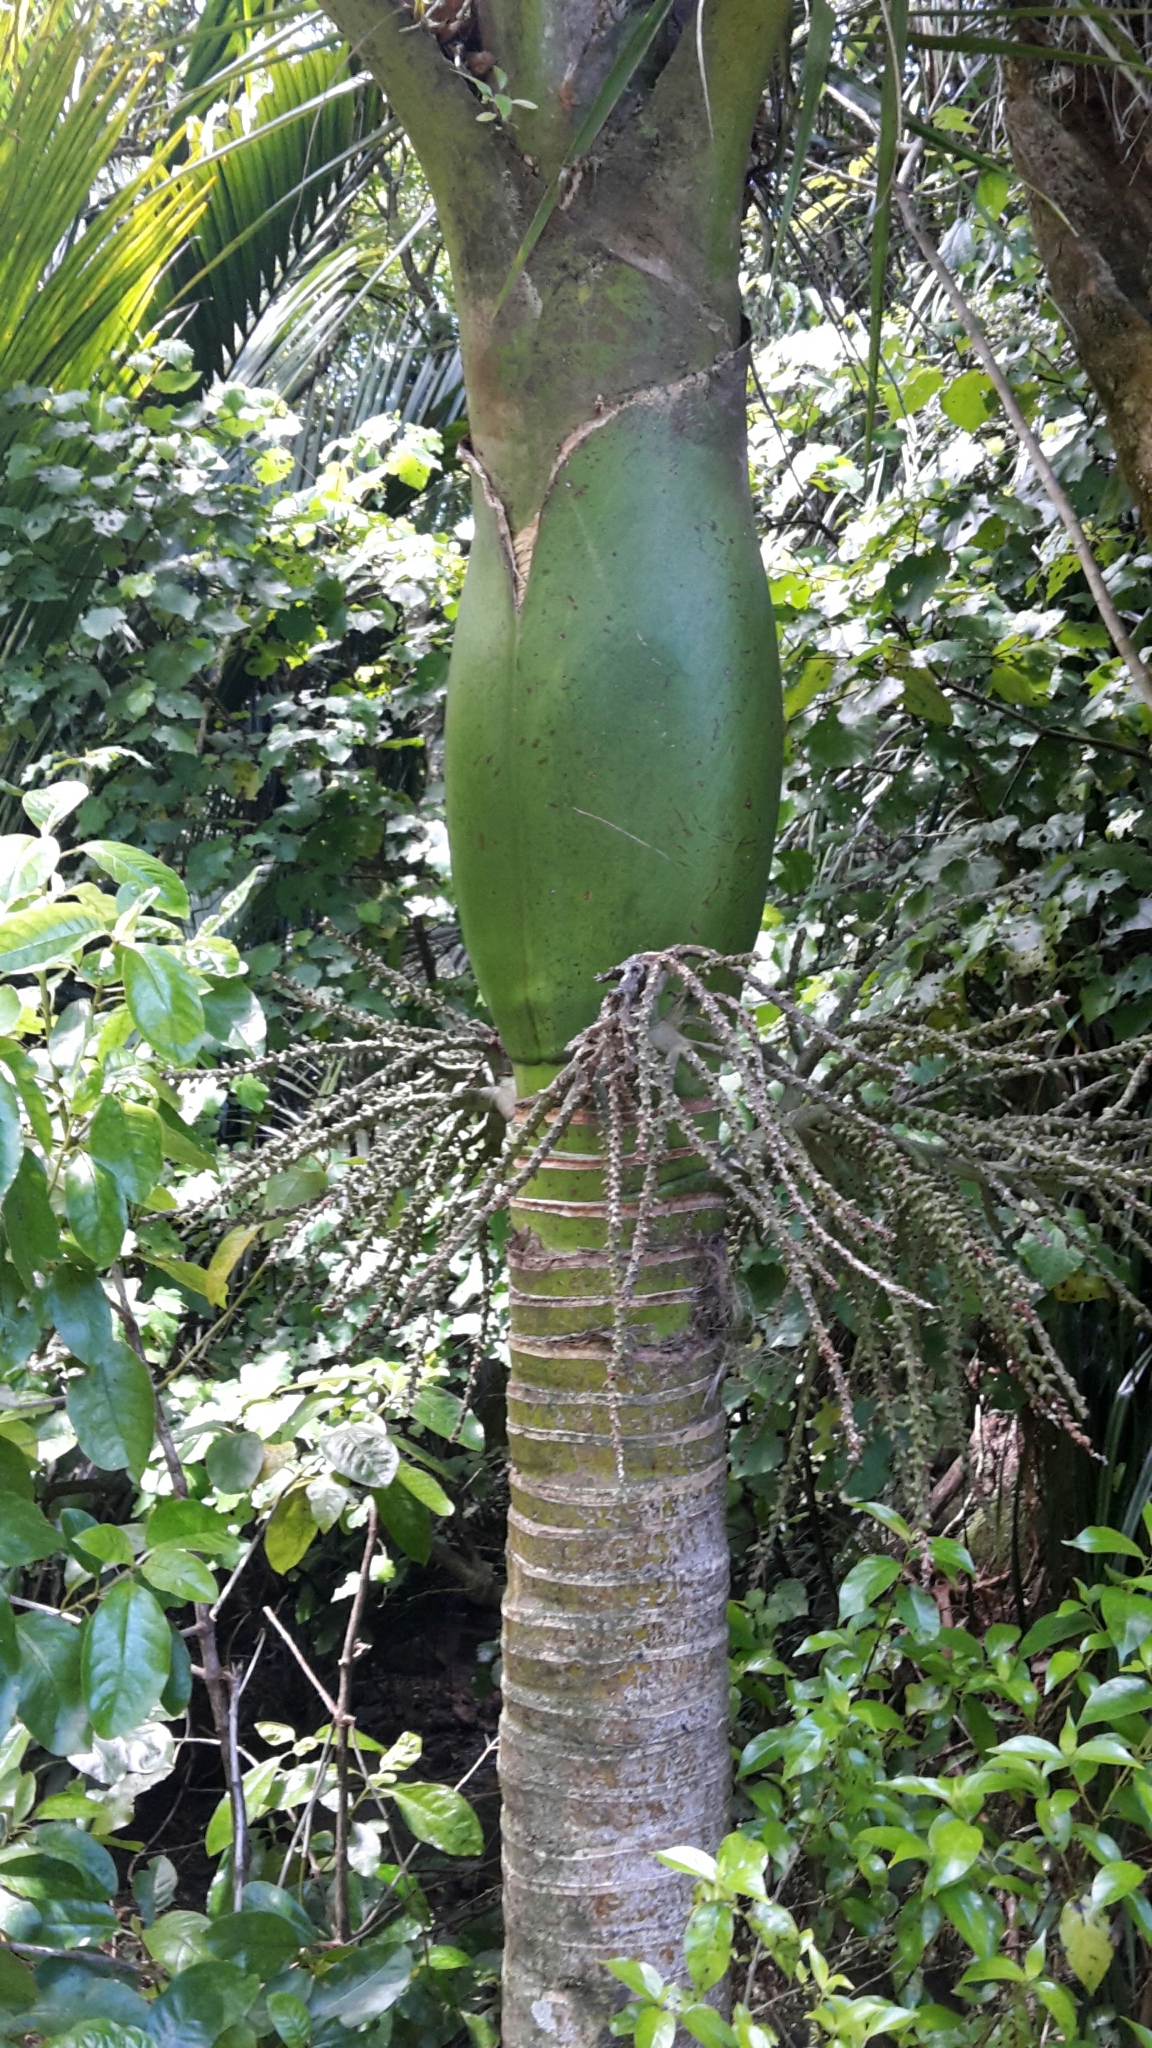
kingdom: Plantae
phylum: Tracheophyta
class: Liliopsida
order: Arecales
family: Arecaceae
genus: Rhopalostylis
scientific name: Rhopalostylis sapida
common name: Feather-duster palm
